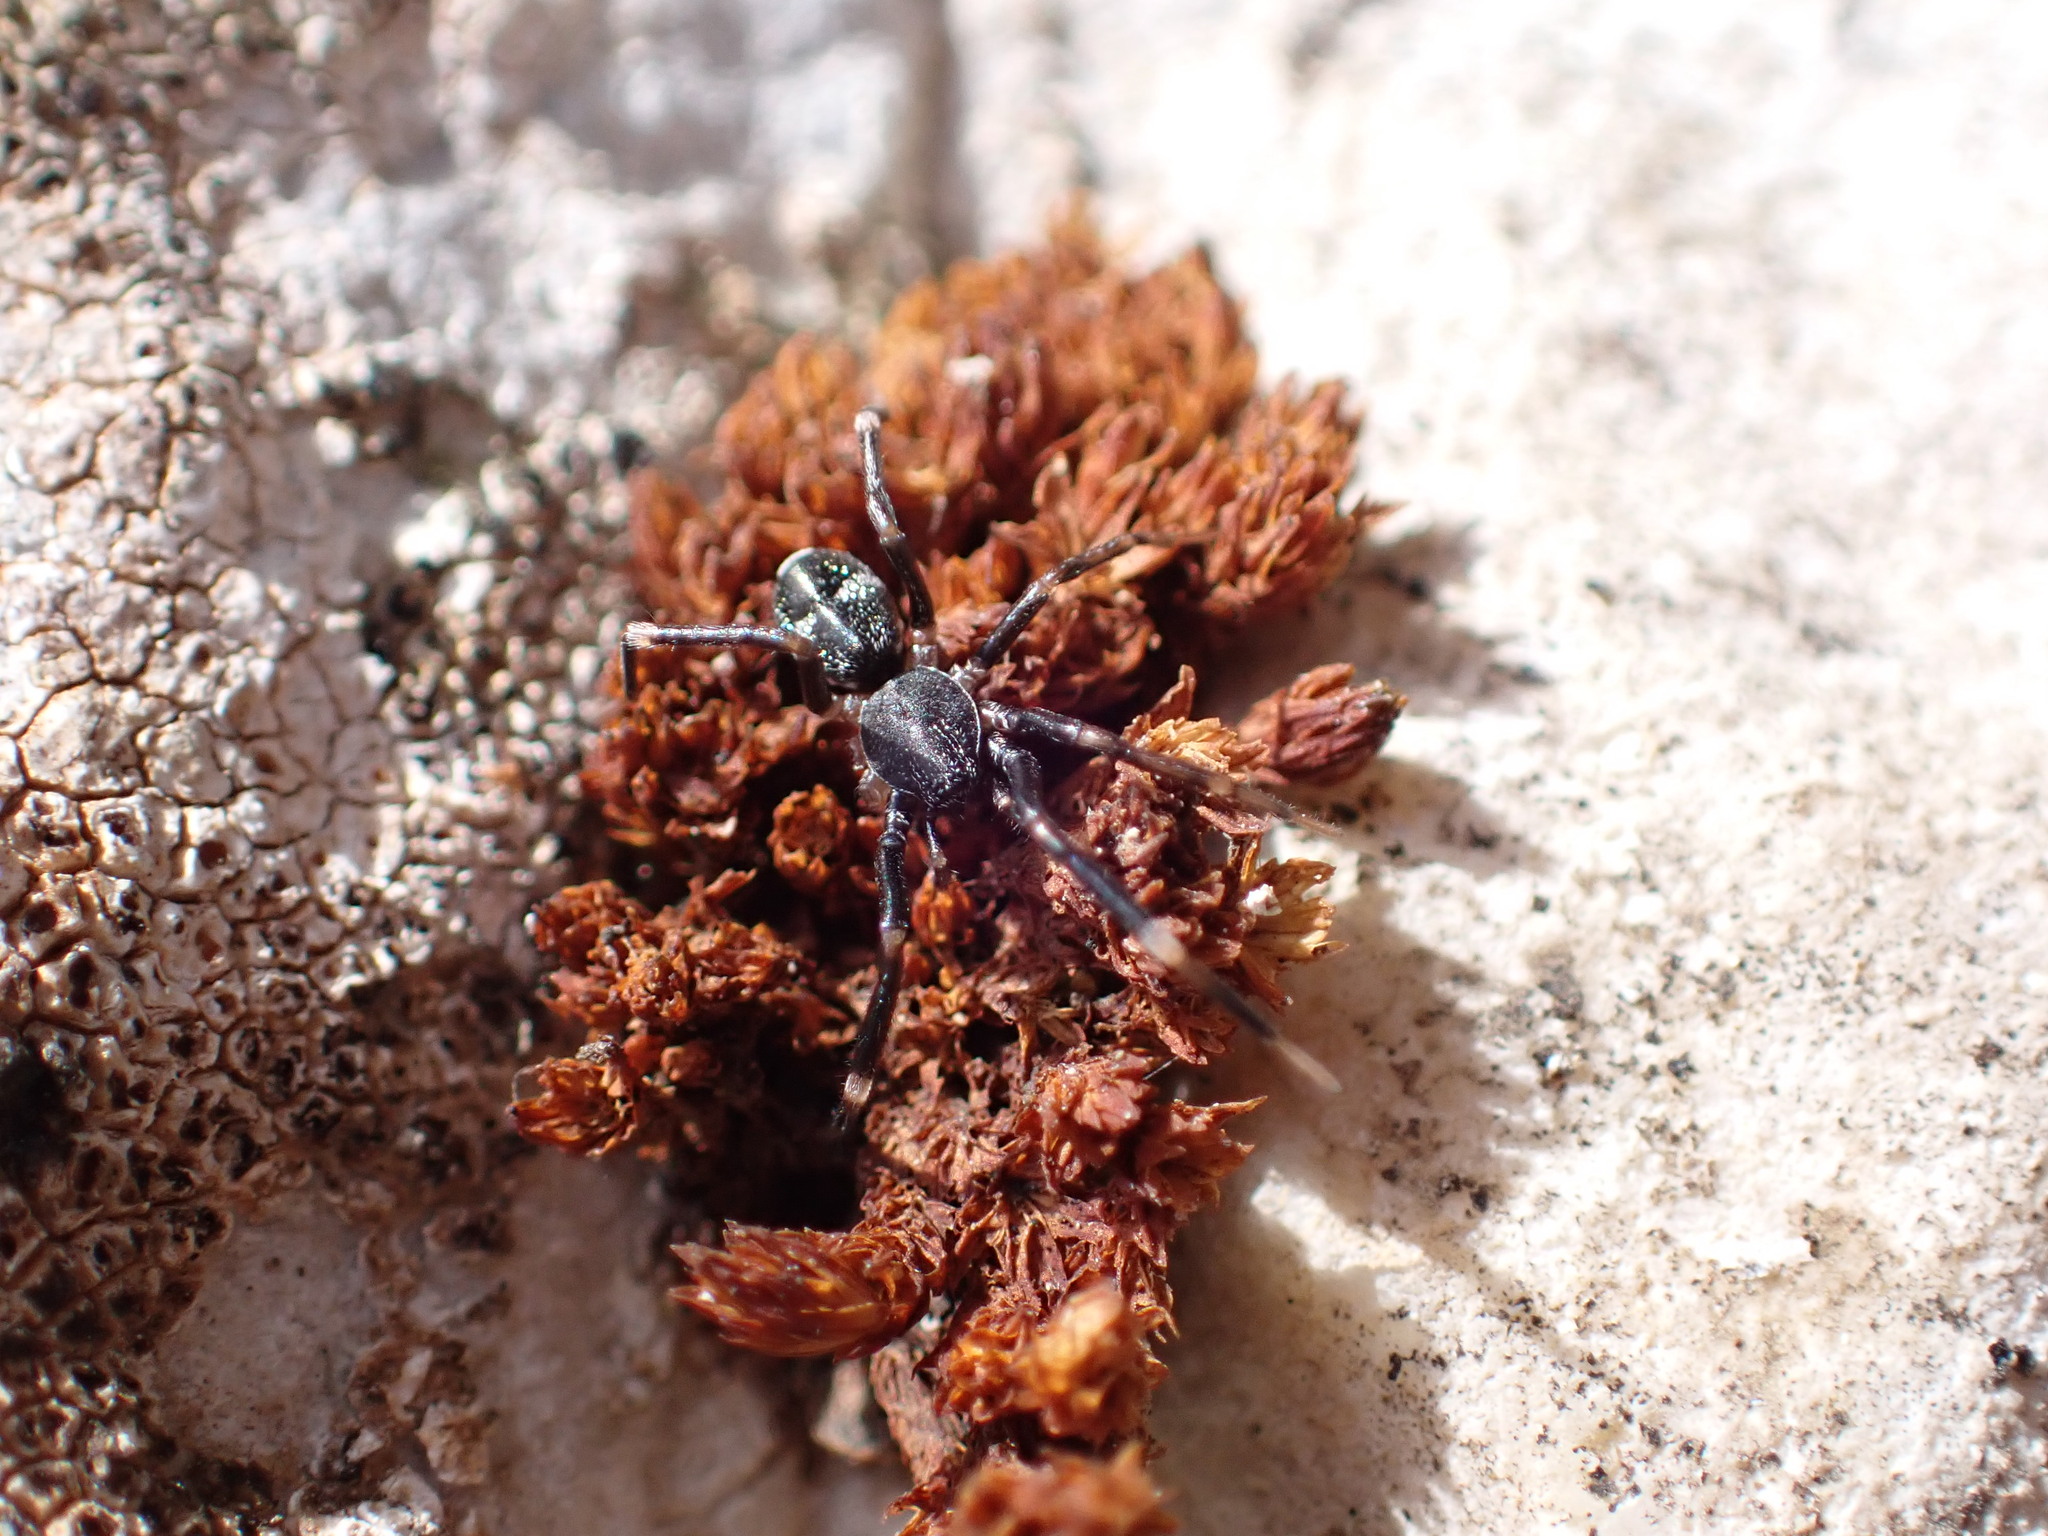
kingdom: Animalia
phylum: Arthropoda
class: Arachnida
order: Araneae
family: Phrurolithidae
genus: Liophrurillus
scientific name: Liophrurillus flavitarsis
